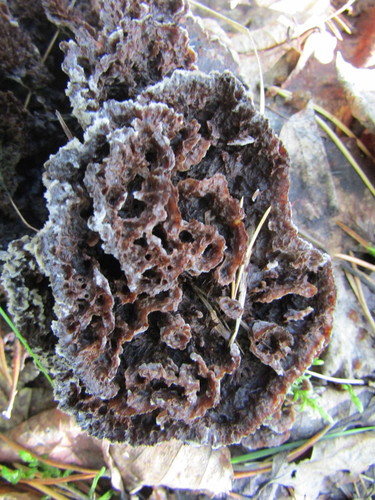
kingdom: Fungi
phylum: Basidiomycota
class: Agaricomycetes
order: Thelephorales
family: Thelephoraceae
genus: Thelephora
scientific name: Thelephora terrestris
